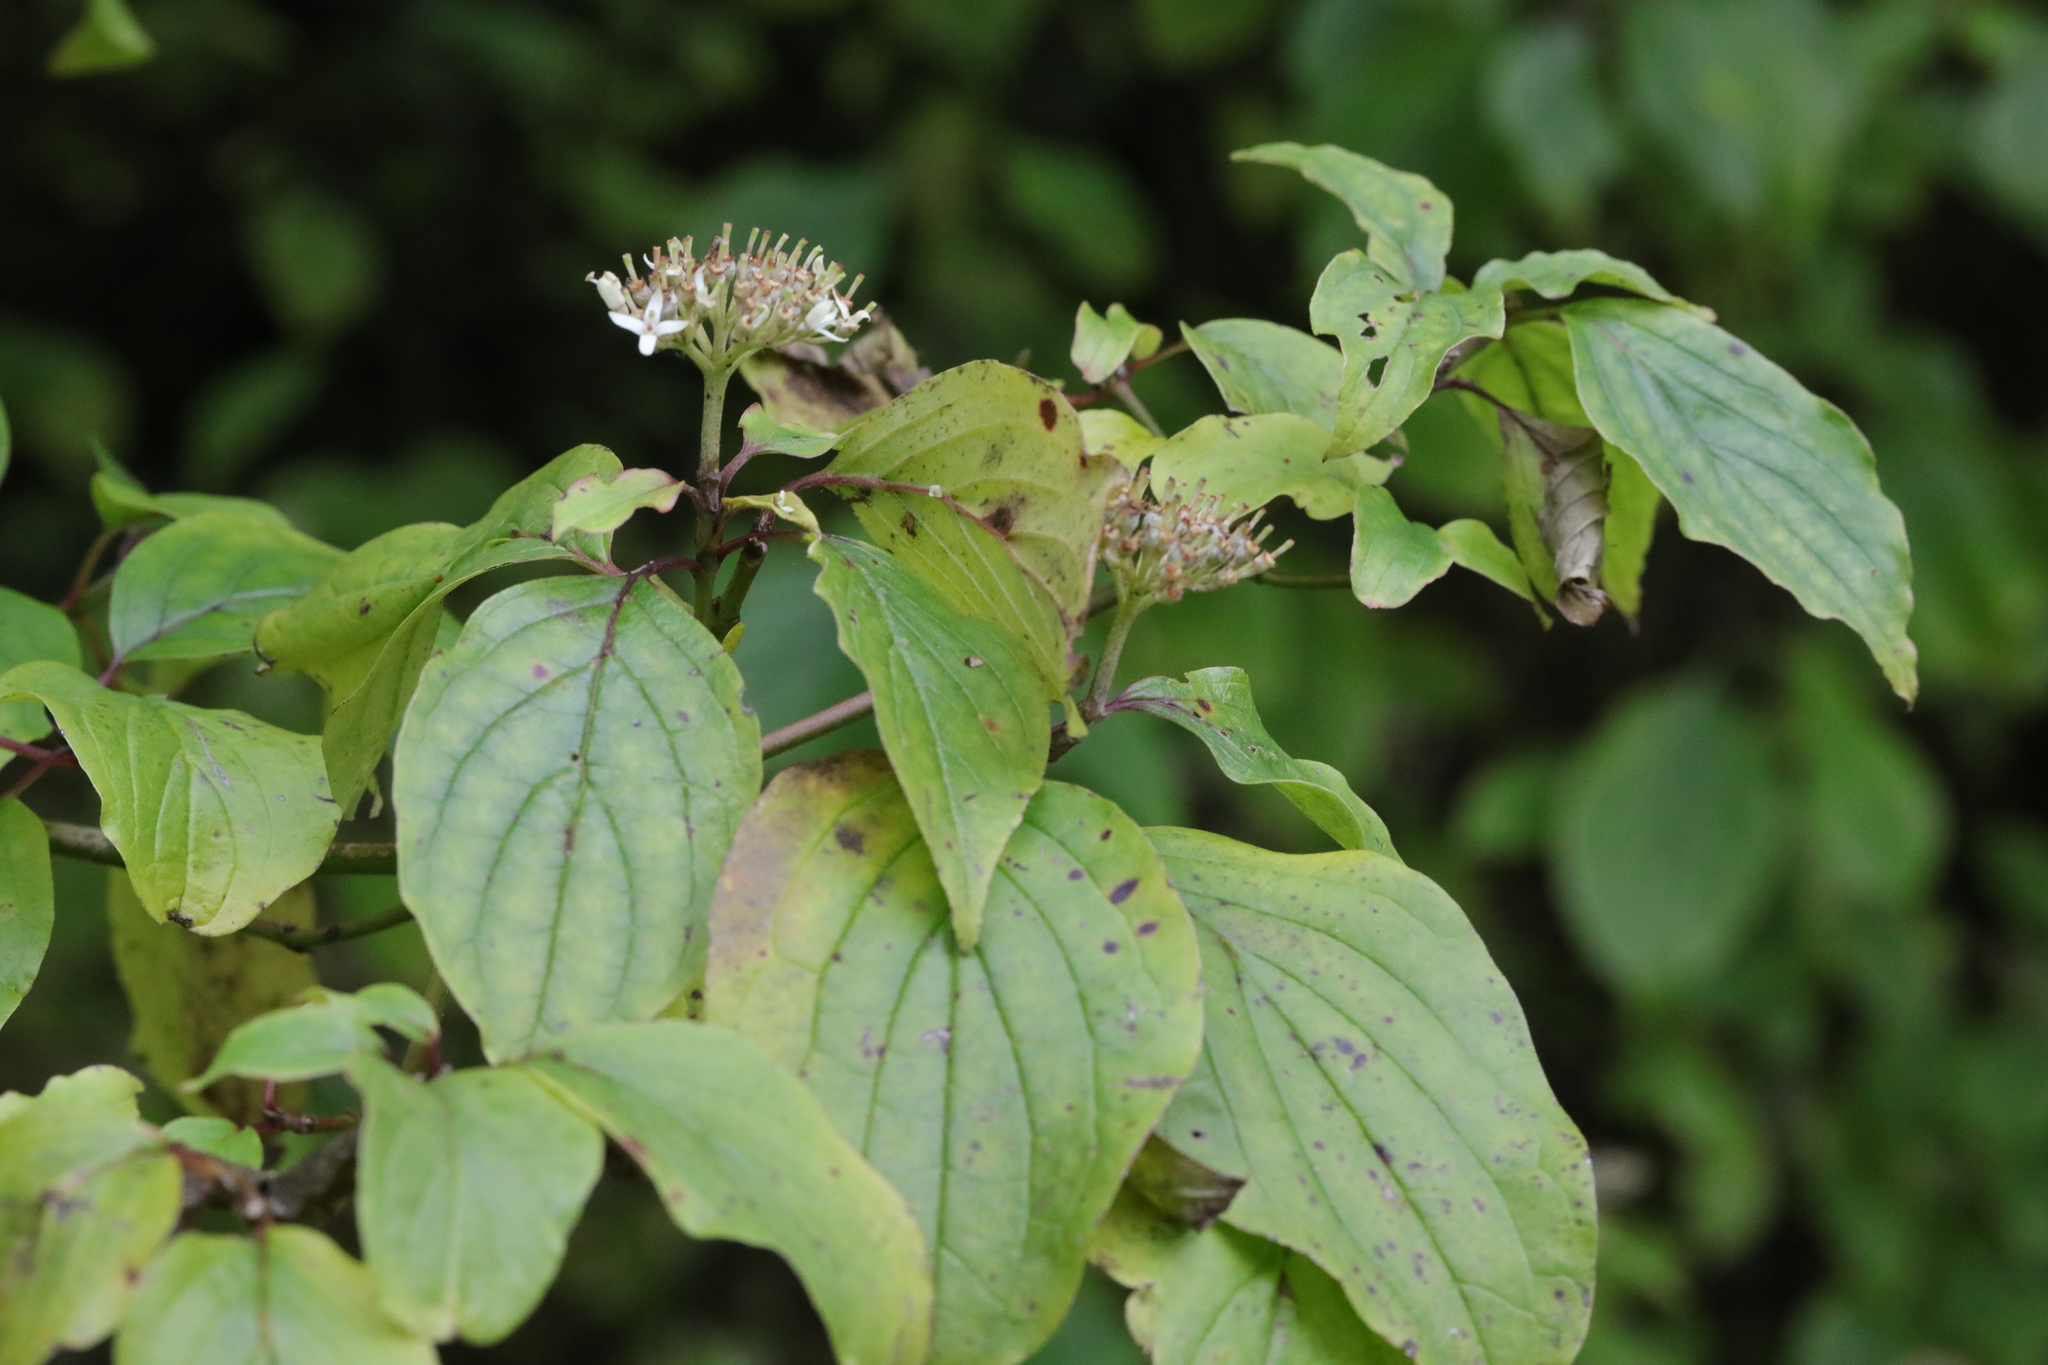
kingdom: Plantae
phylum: Tracheophyta
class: Magnoliopsida
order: Cornales
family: Cornaceae
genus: Cornus
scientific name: Cornus sanguinea
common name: Dogwood
